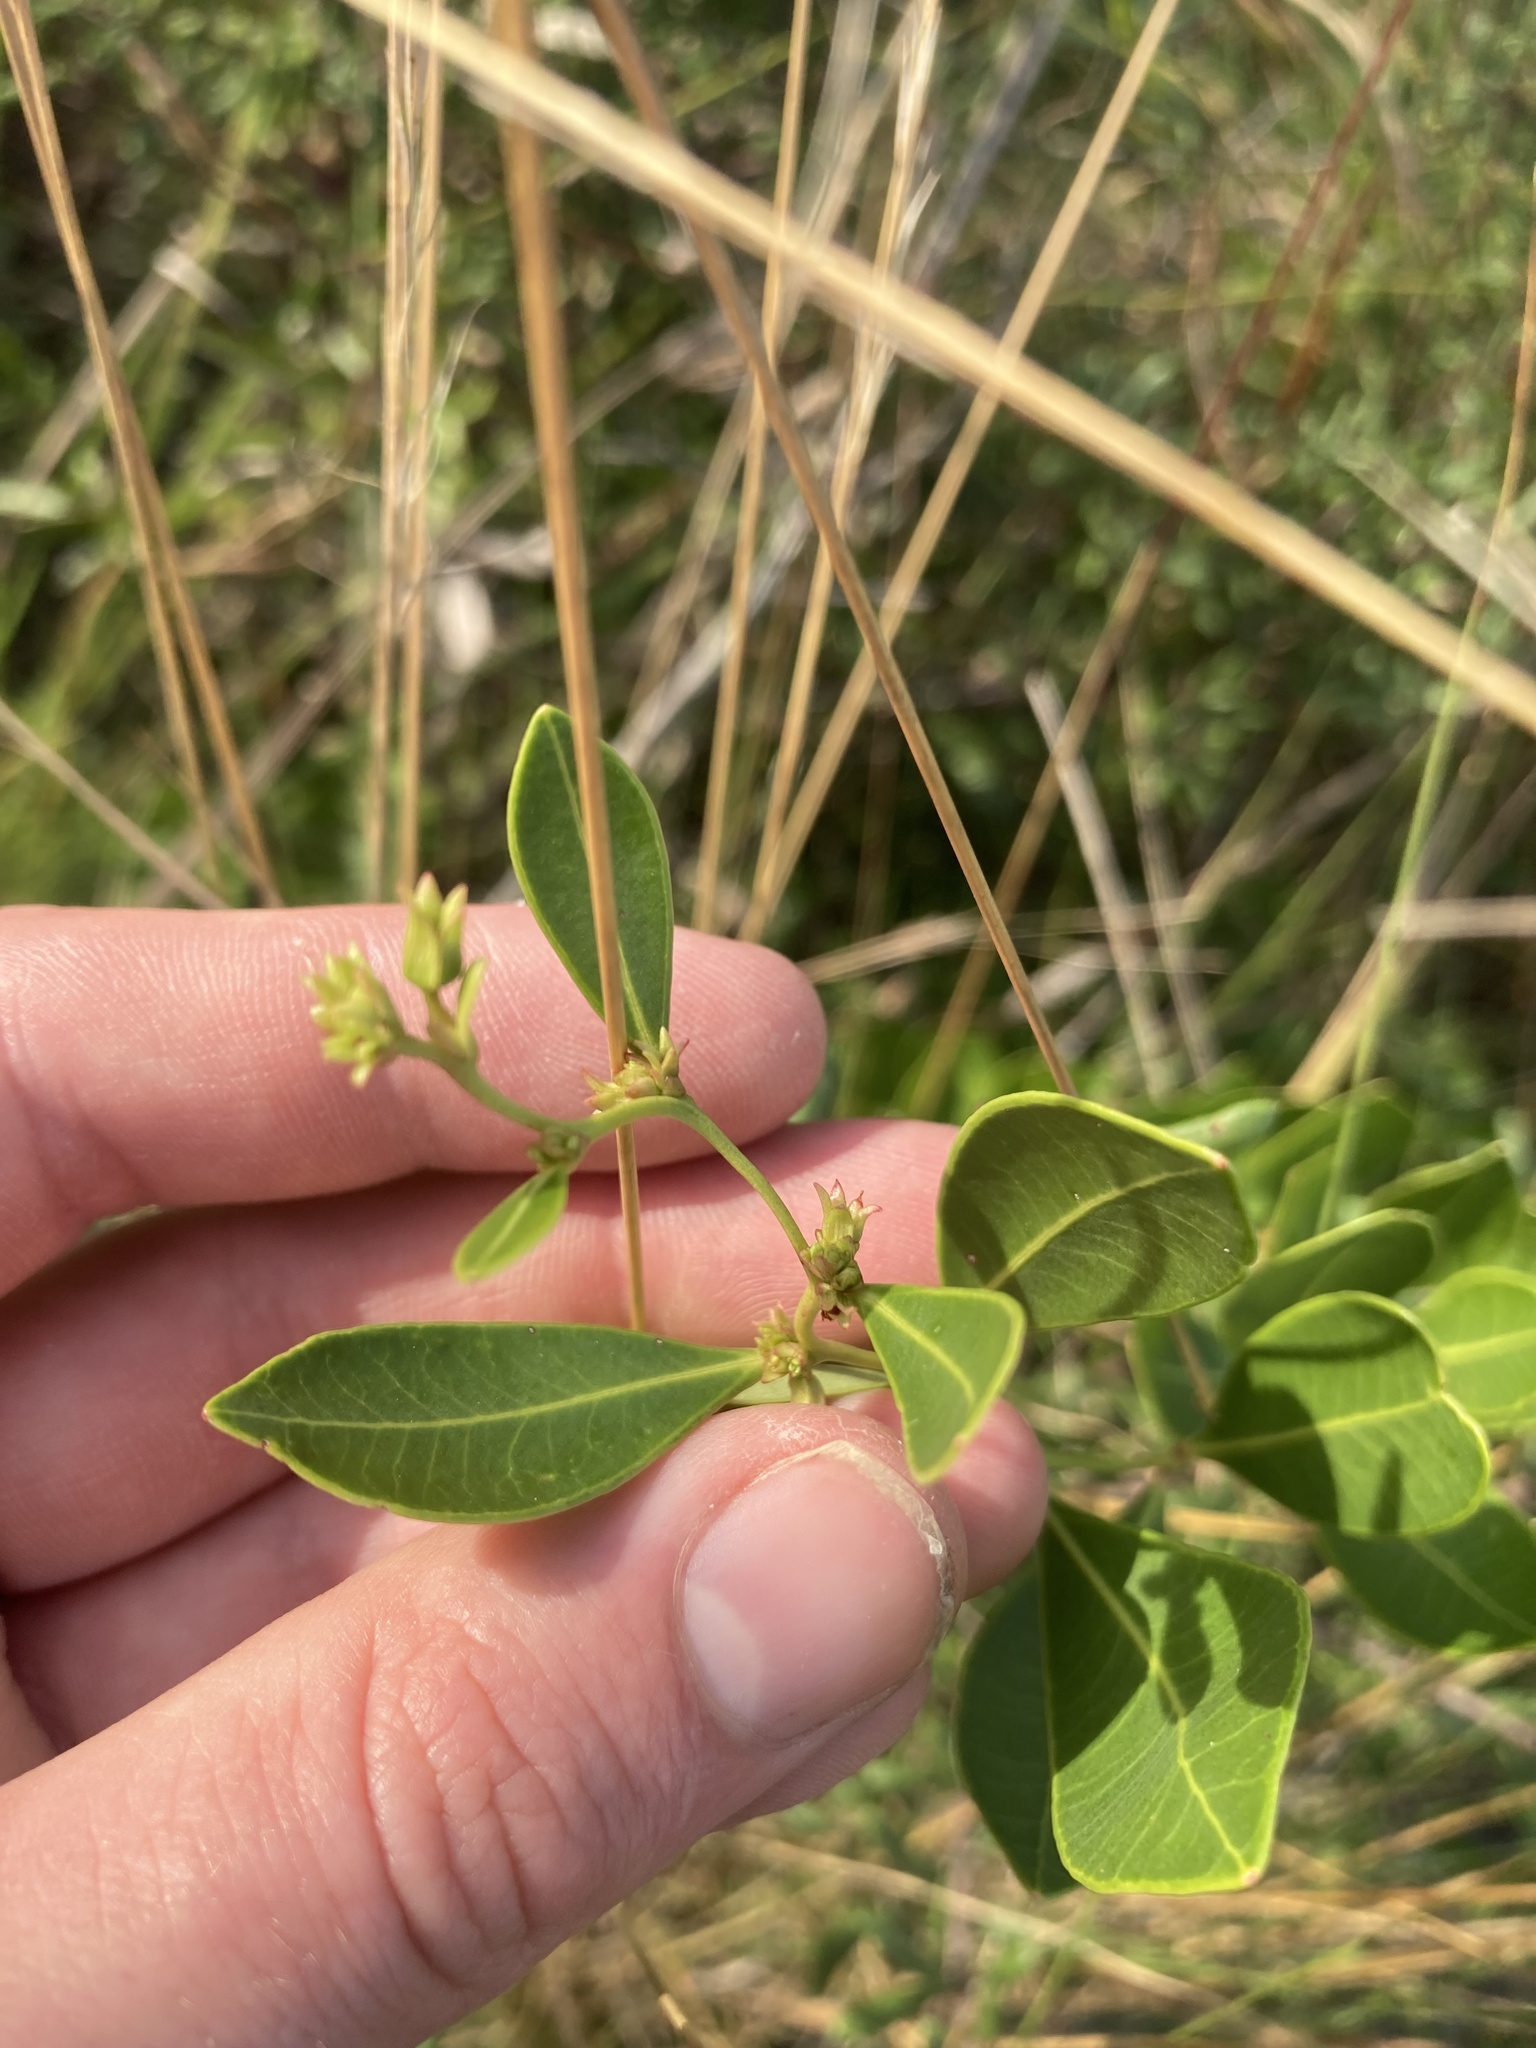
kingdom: Plantae
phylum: Tracheophyta
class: Magnoliopsida
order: Ericales
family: Ericaceae
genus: Lyonia
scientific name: Lyonia lucida
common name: Fetterbush
